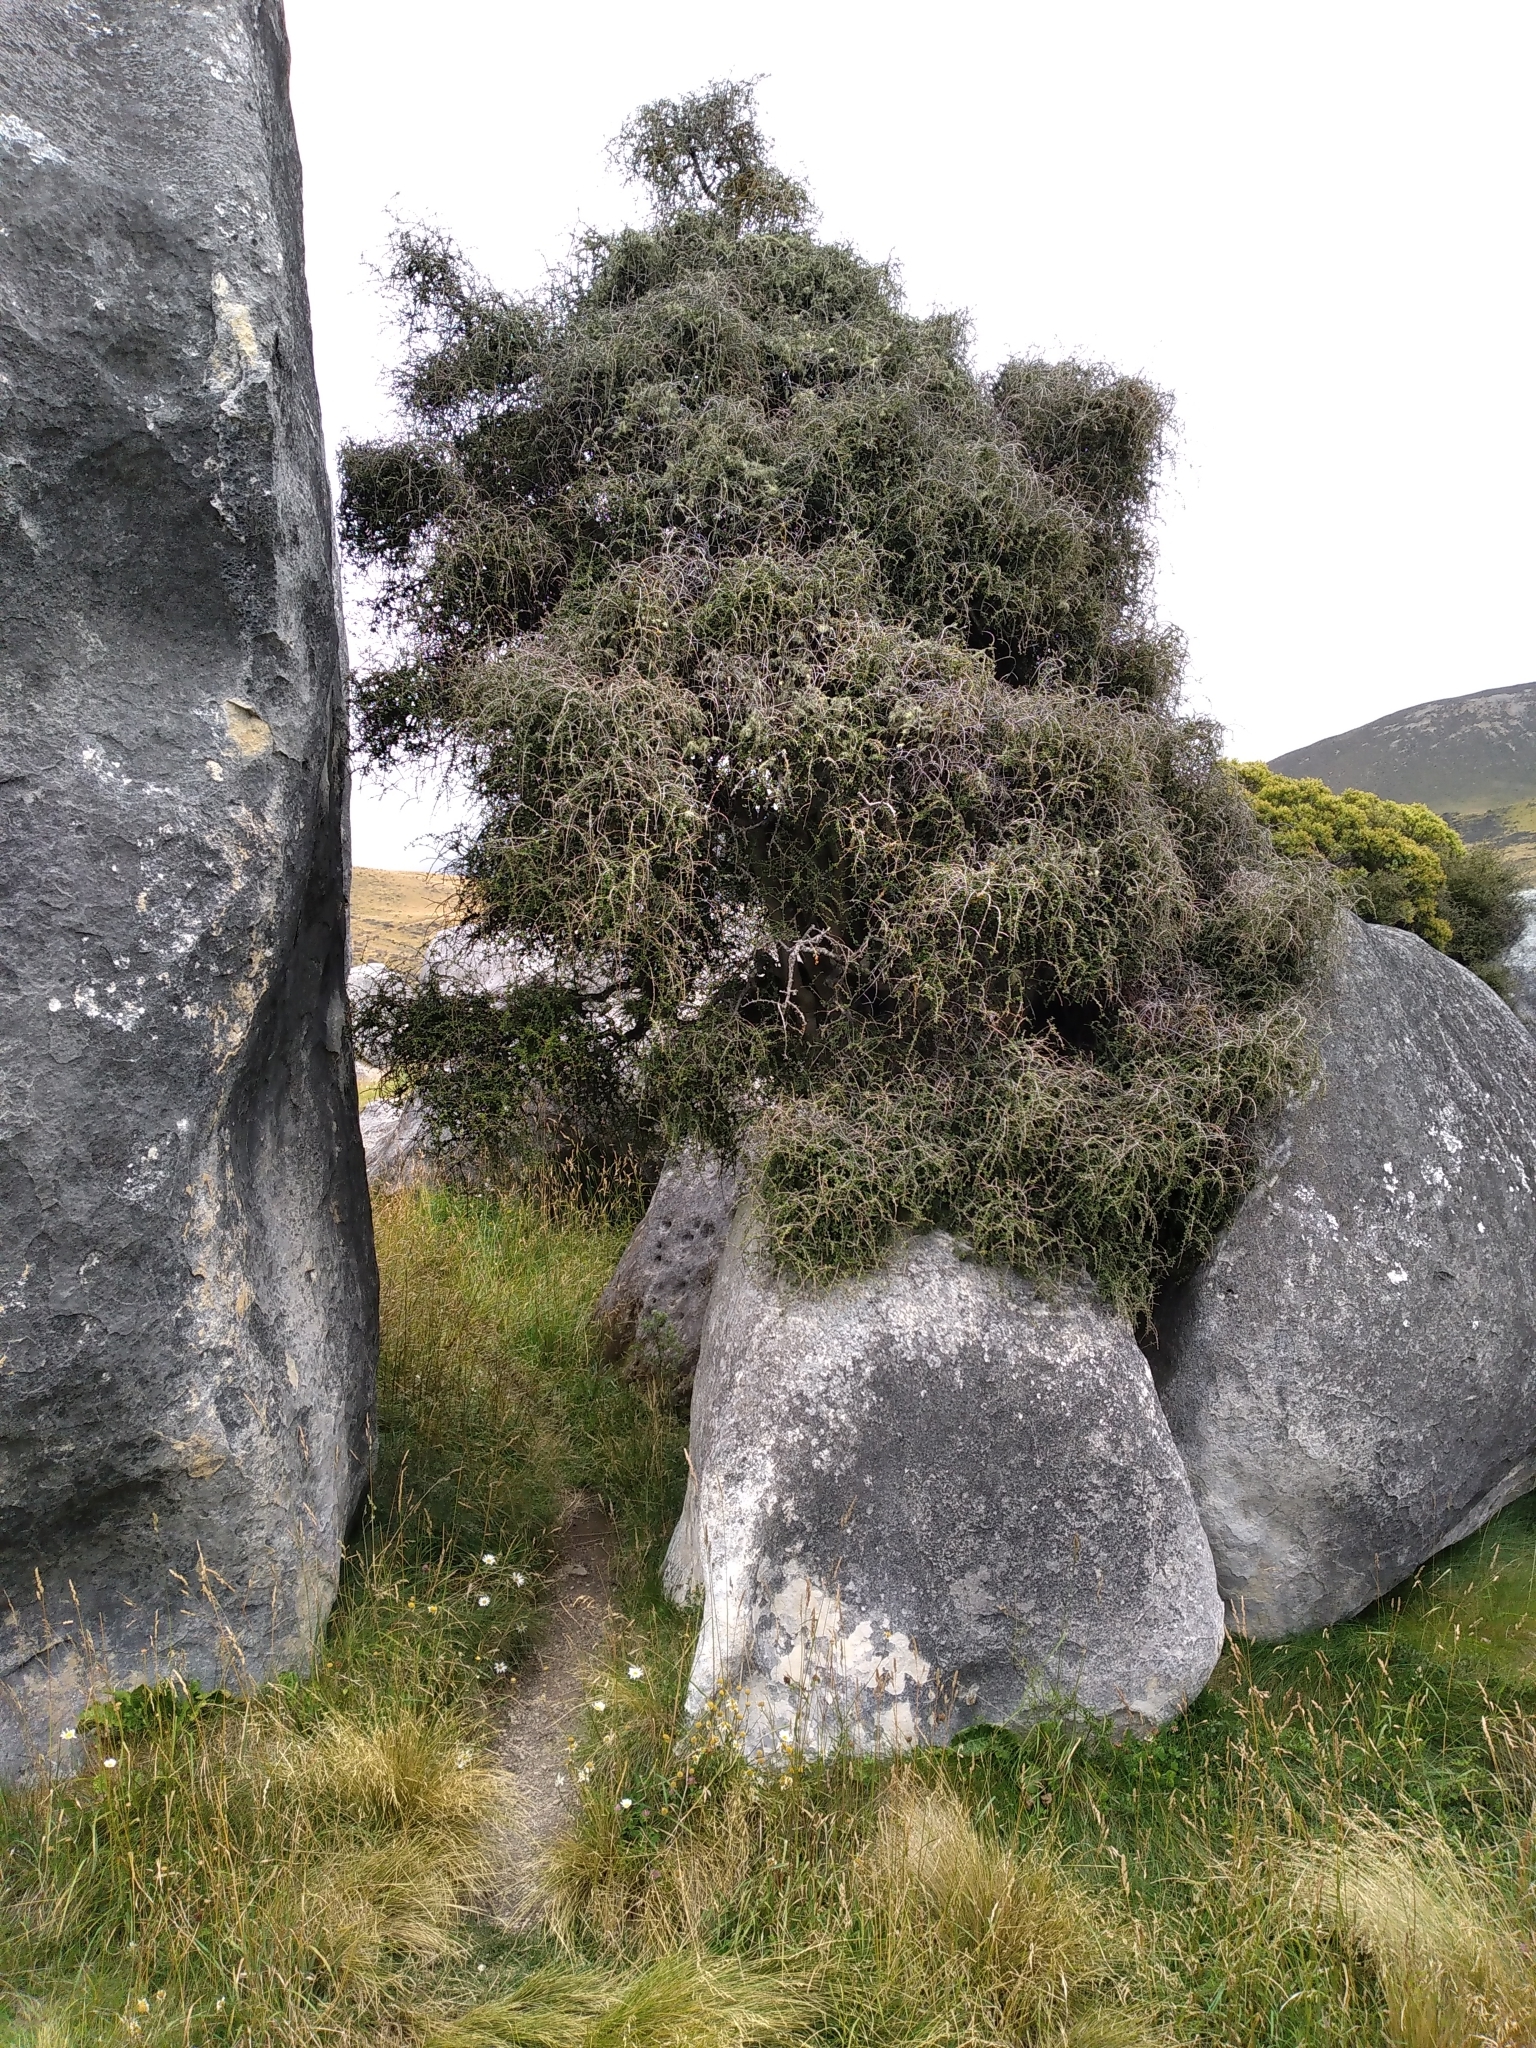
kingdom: Plantae
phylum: Tracheophyta
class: Magnoliopsida
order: Ericales
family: Primulaceae
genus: Myrsine
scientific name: Myrsine divaricata
